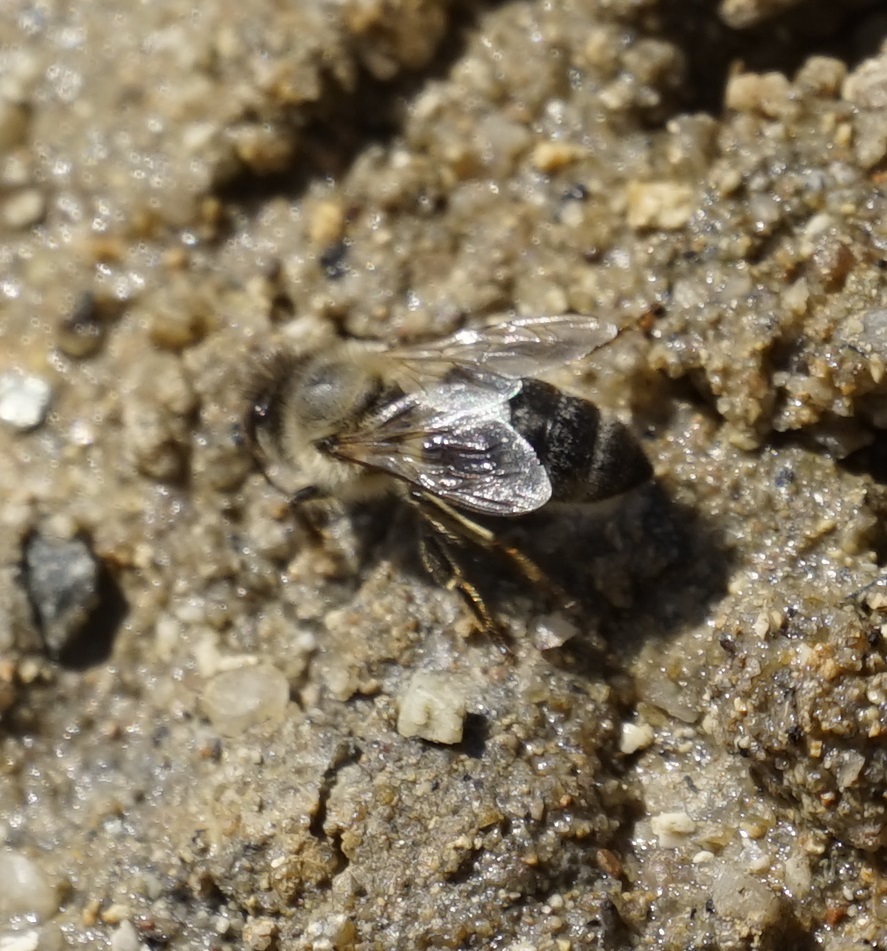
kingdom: Animalia
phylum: Arthropoda
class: Insecta
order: Hymenoptera
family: Apidae
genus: Apis
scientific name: Apis mellifera
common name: Honey bee
